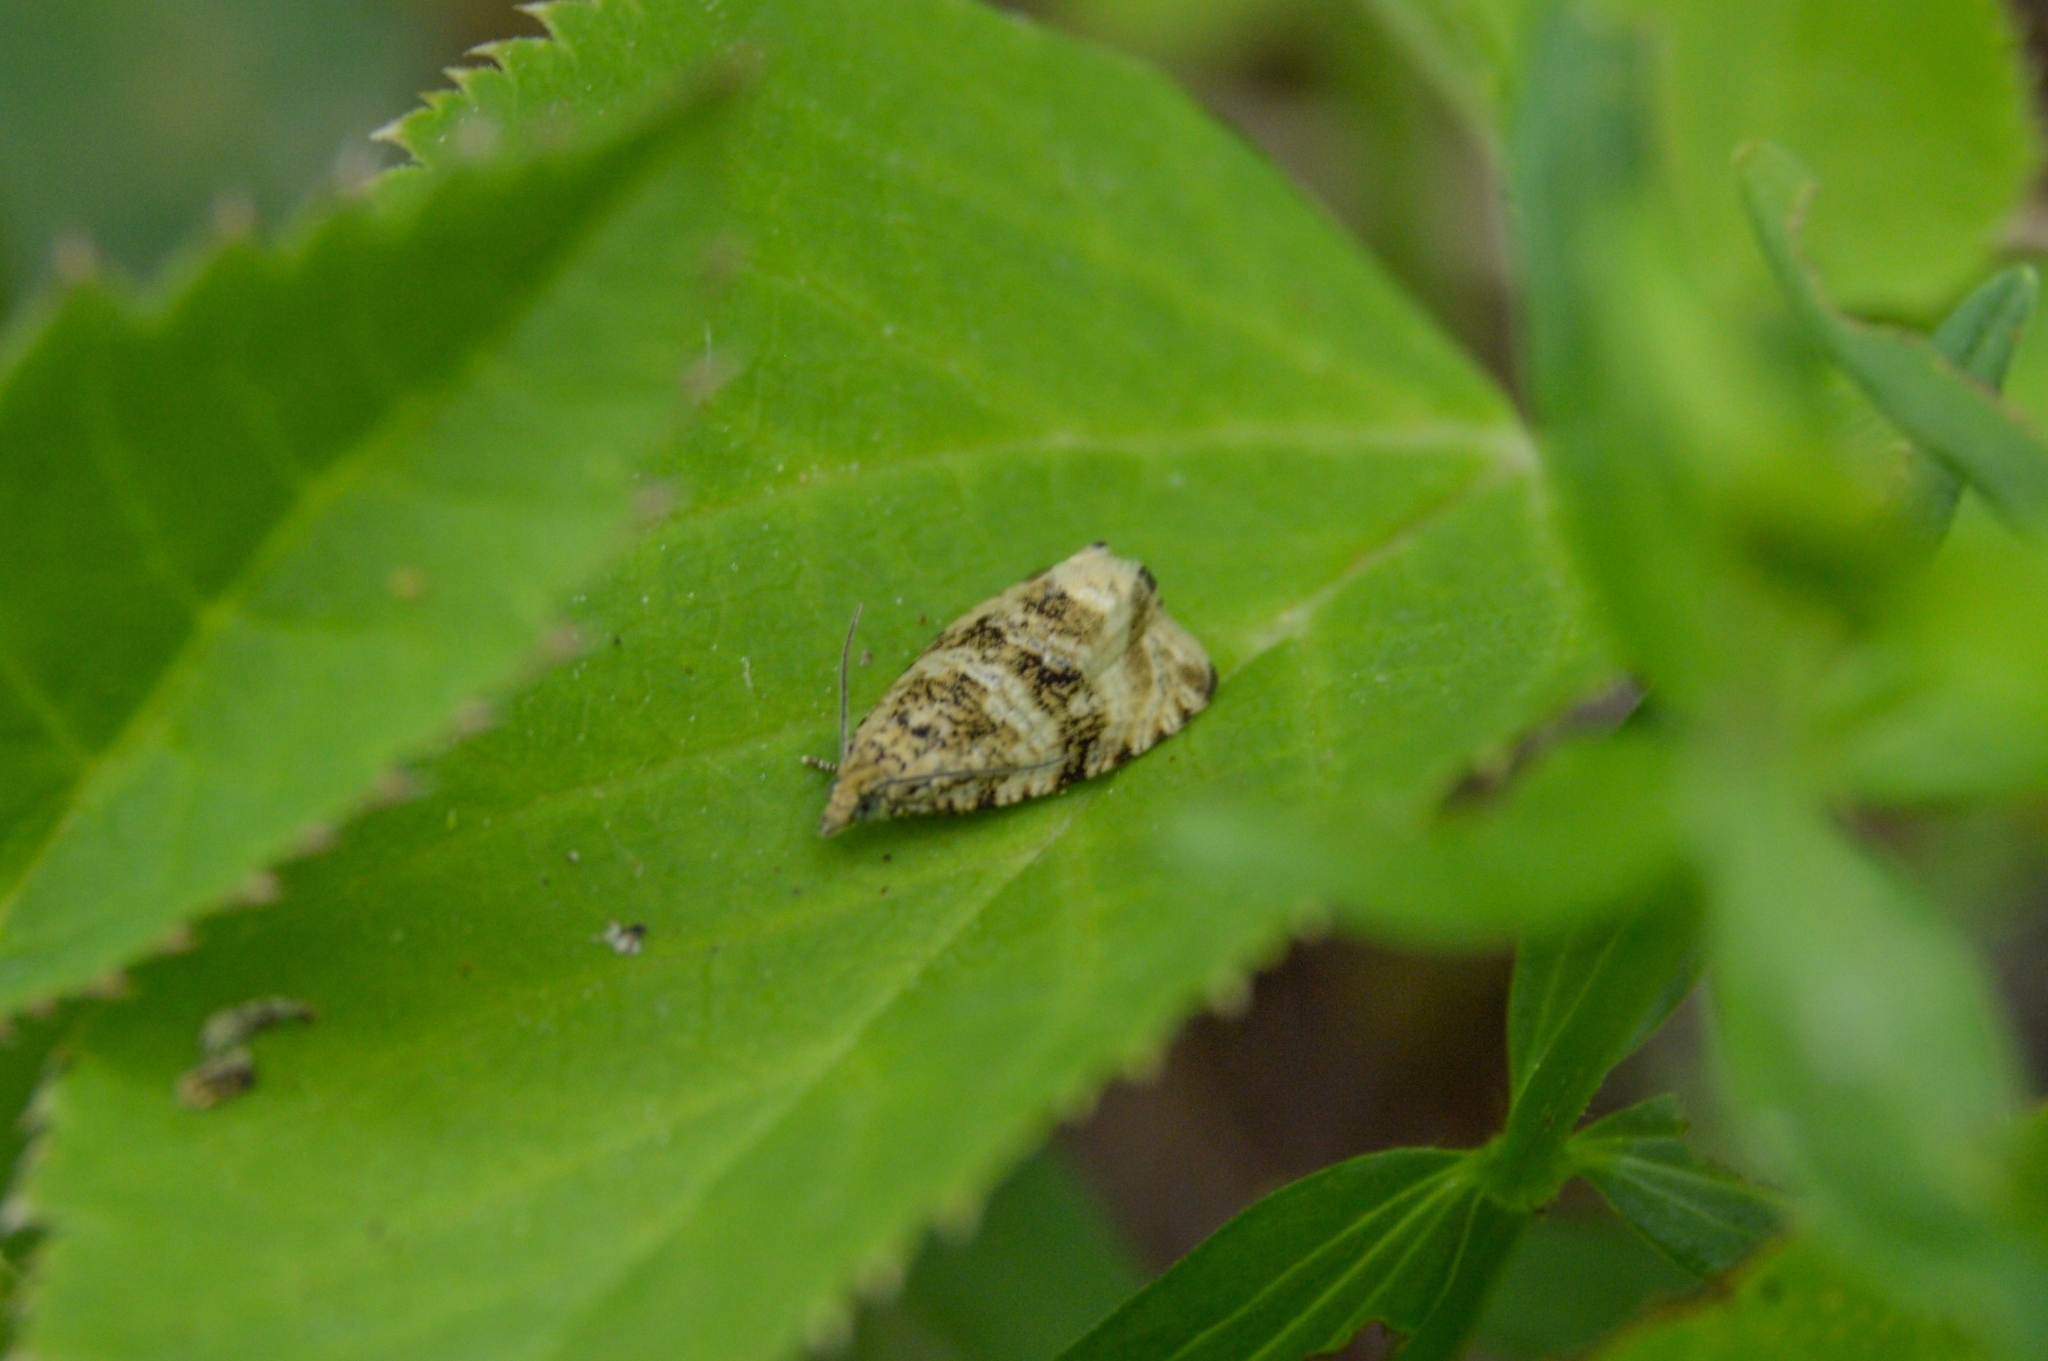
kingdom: Animalia
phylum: Arthropoda
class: Insecta
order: Lepidoptera
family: Tortricidae
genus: Syricoris
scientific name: Syricoris lacunana
